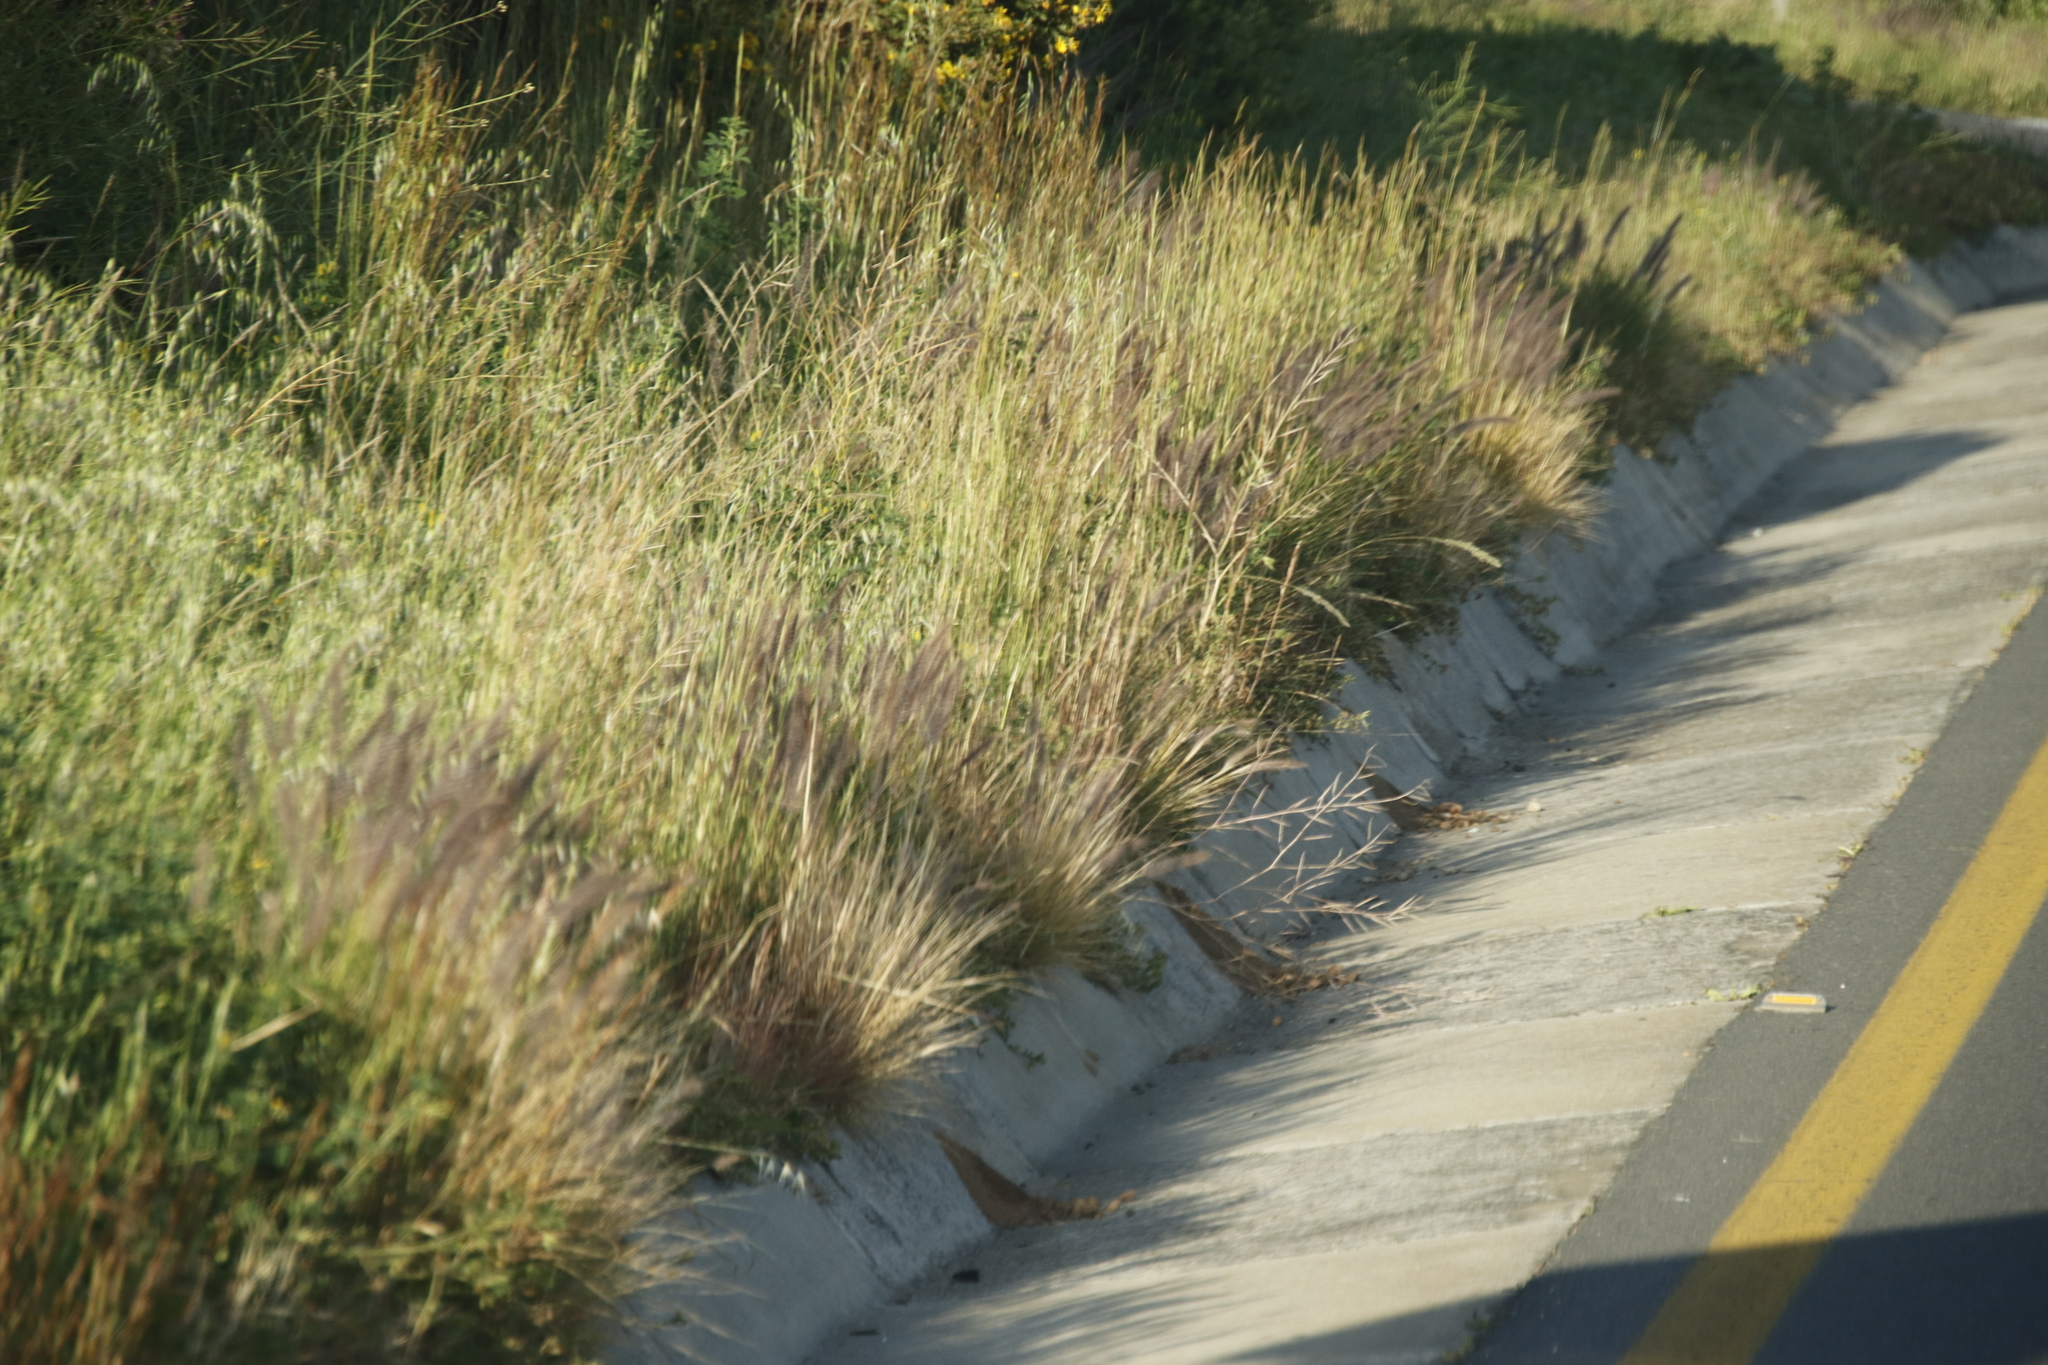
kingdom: Plantae
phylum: Tracheophyta
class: Liliopsida
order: Poales
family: Poaceae
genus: Cenchrus
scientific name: Cenchrus setaceus
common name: Crimson fountaingrass
